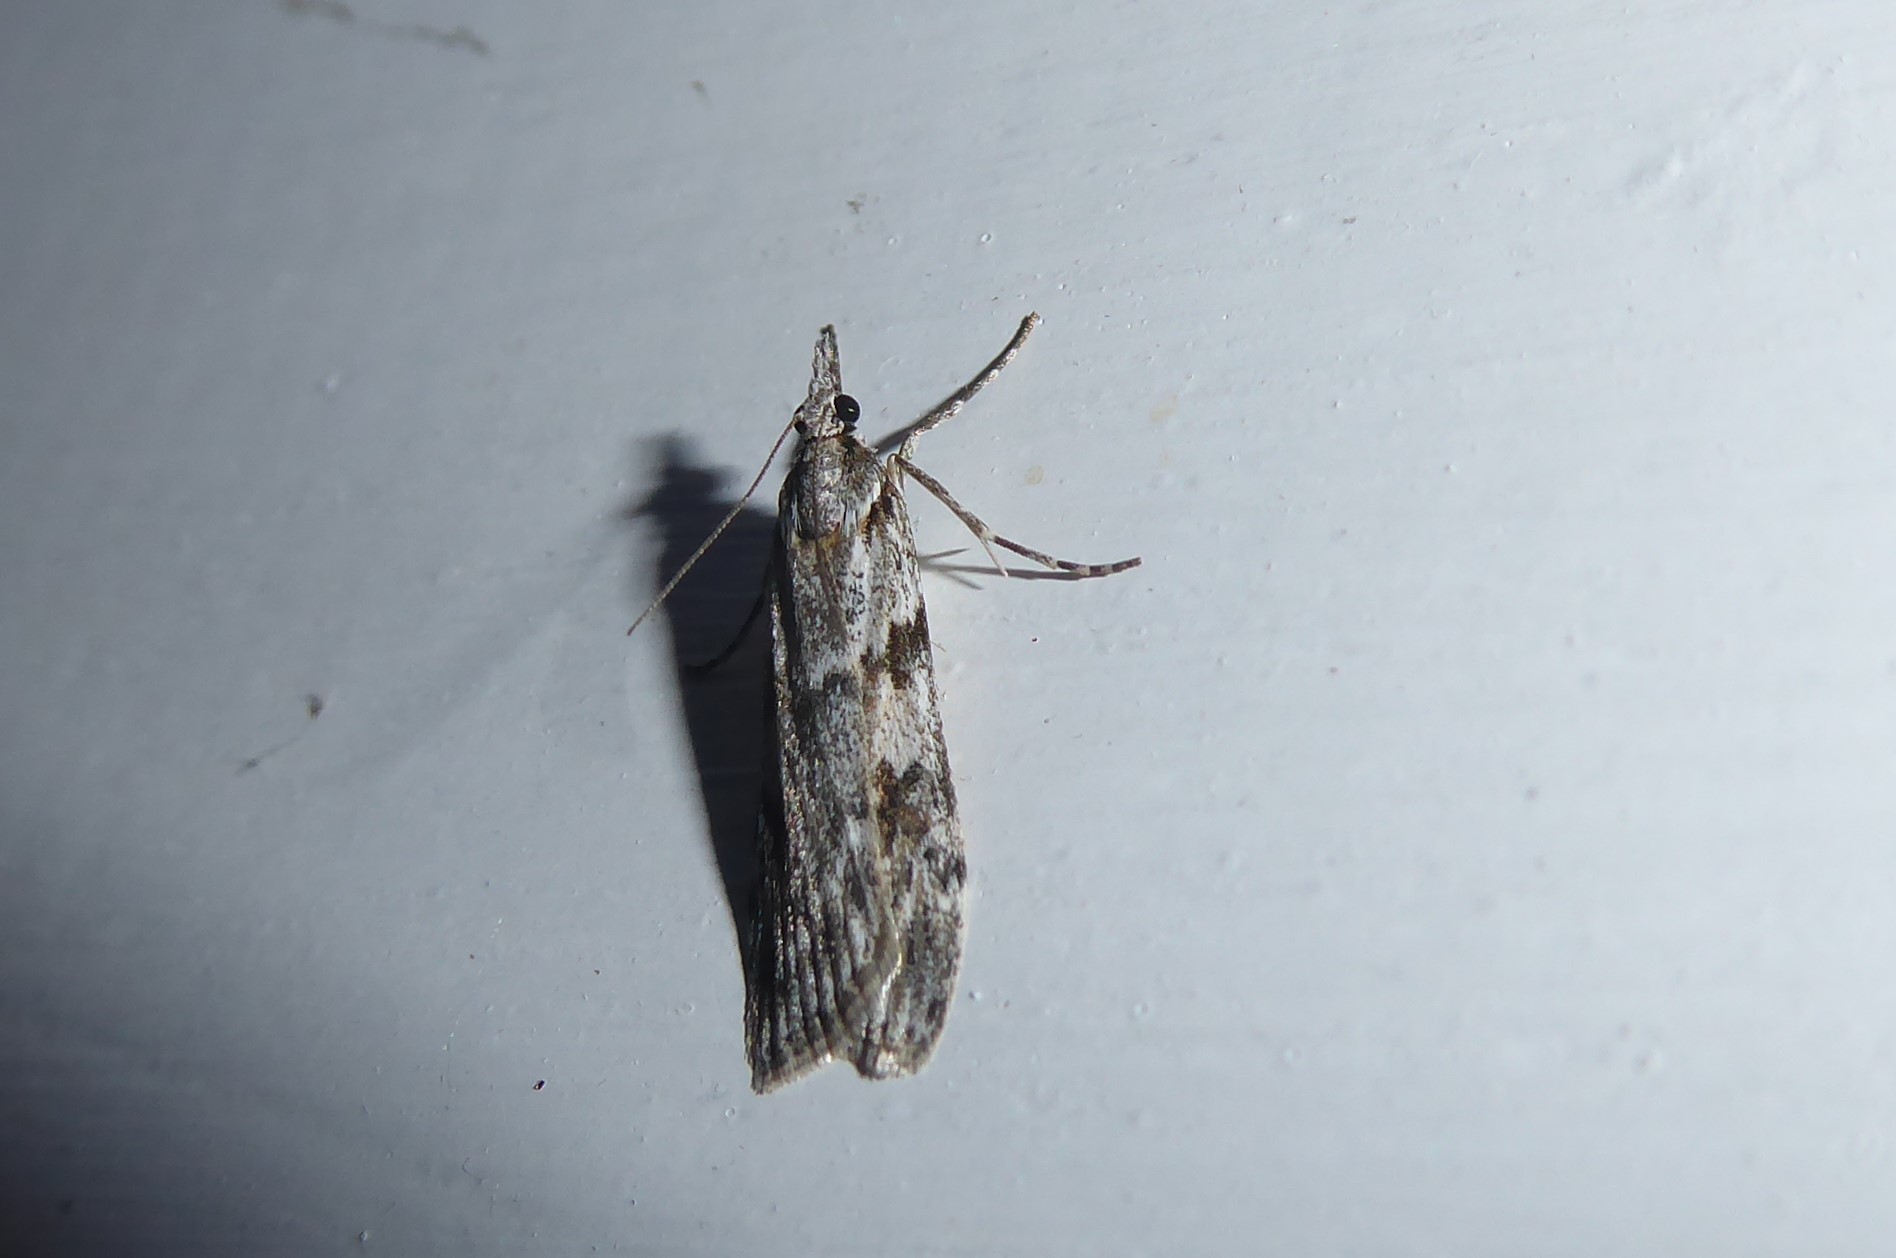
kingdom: Animalia
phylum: Arthropoda
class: Insecta
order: Lepidoptera
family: Crambidae
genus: Scoparia
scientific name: Scoparia halopis
